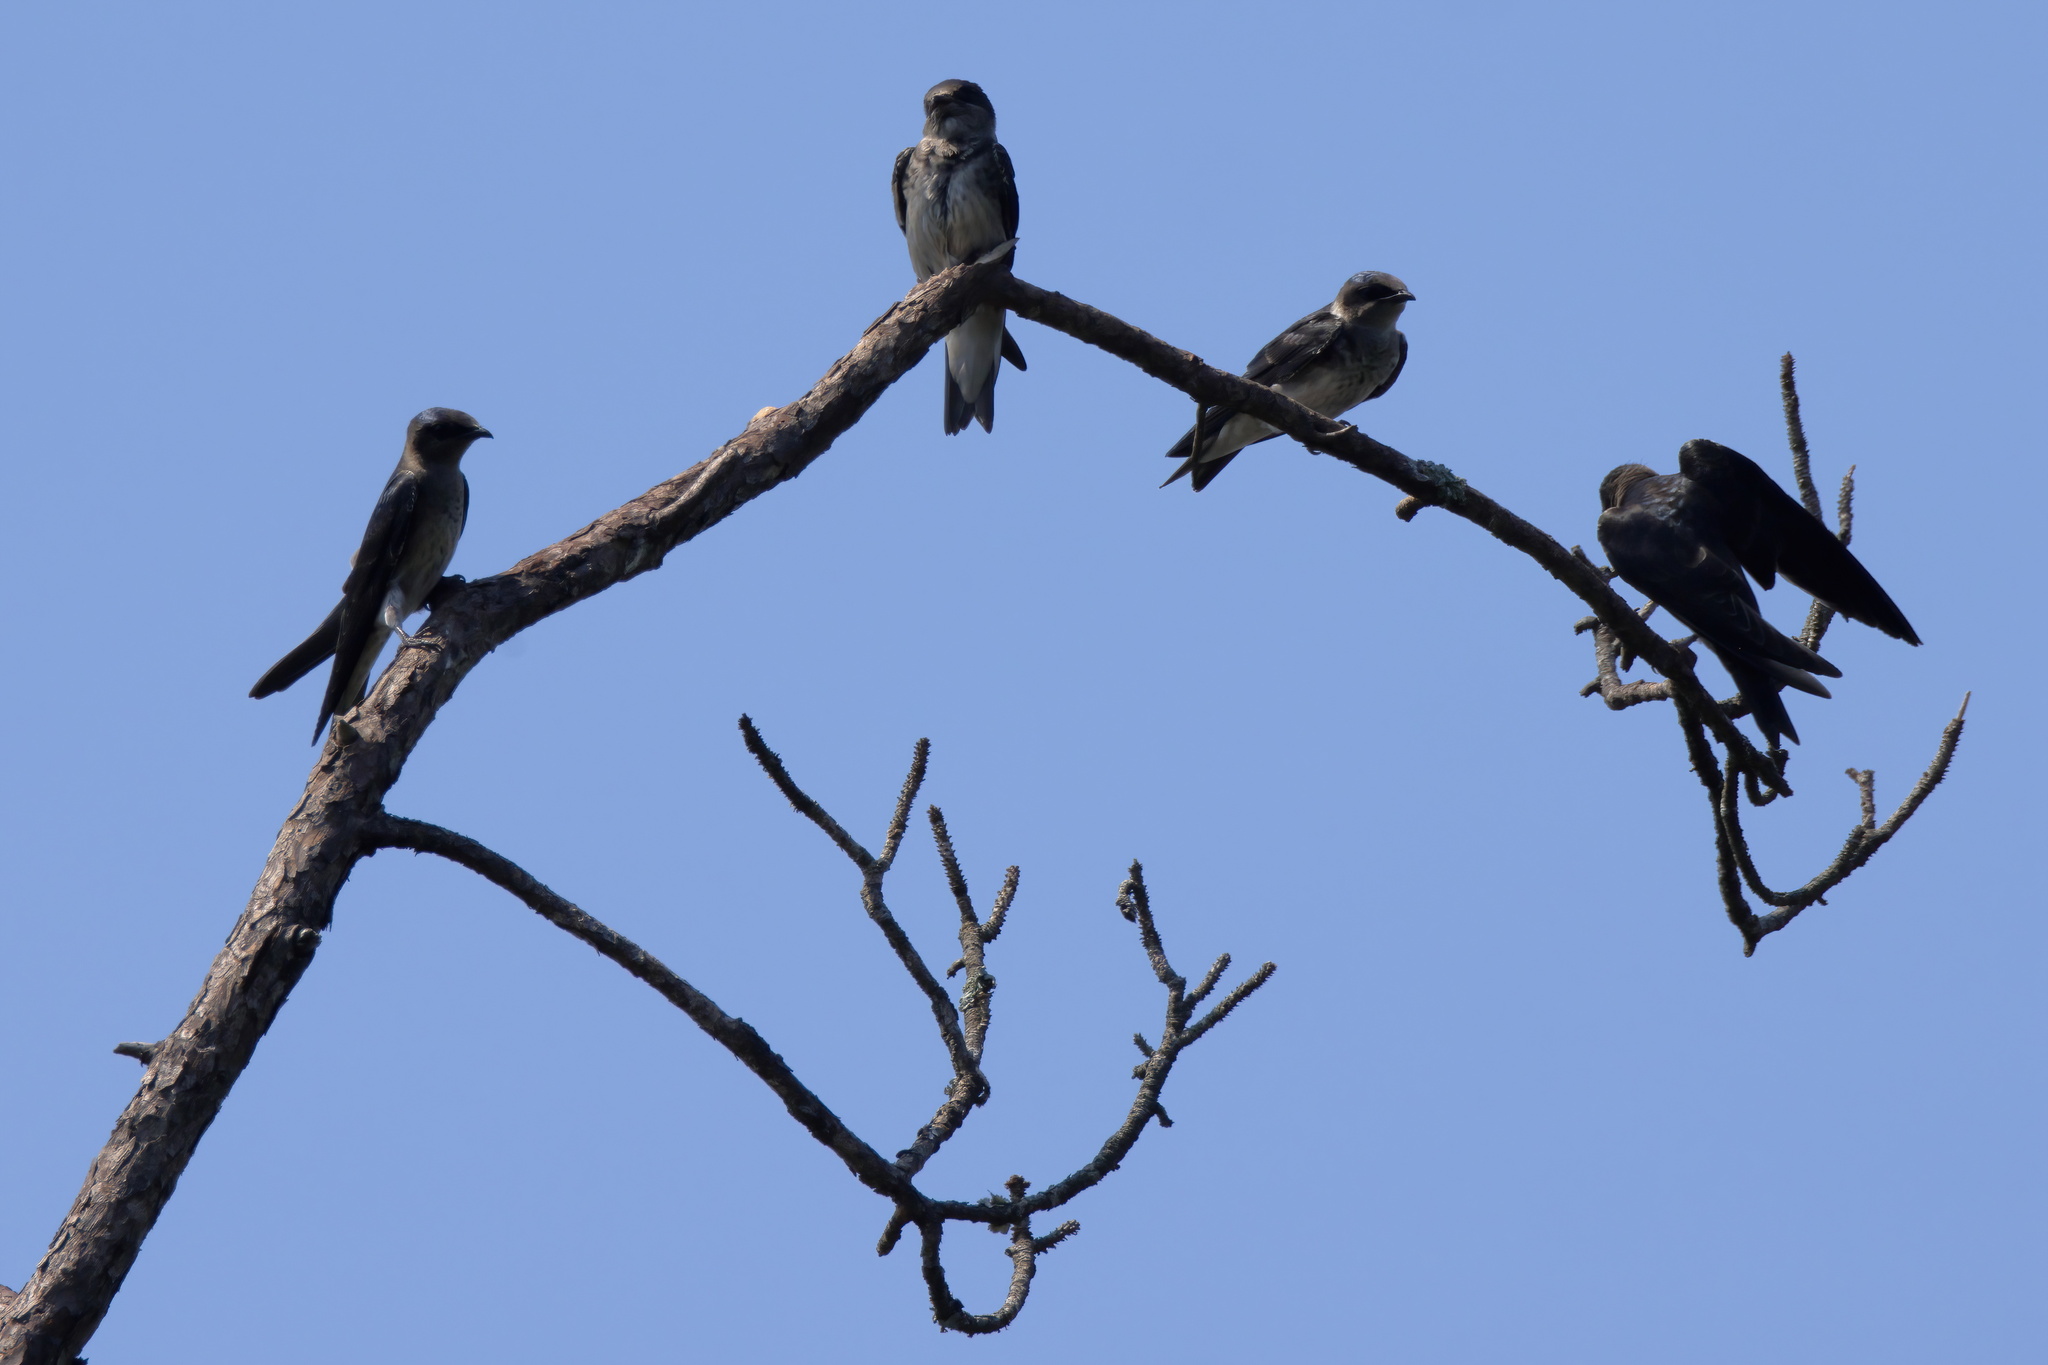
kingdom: Animalia
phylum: Chordata
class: Aves
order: Passeriformes
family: Hirundinidae
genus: Progne
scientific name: Progne subis
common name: Purple martin
